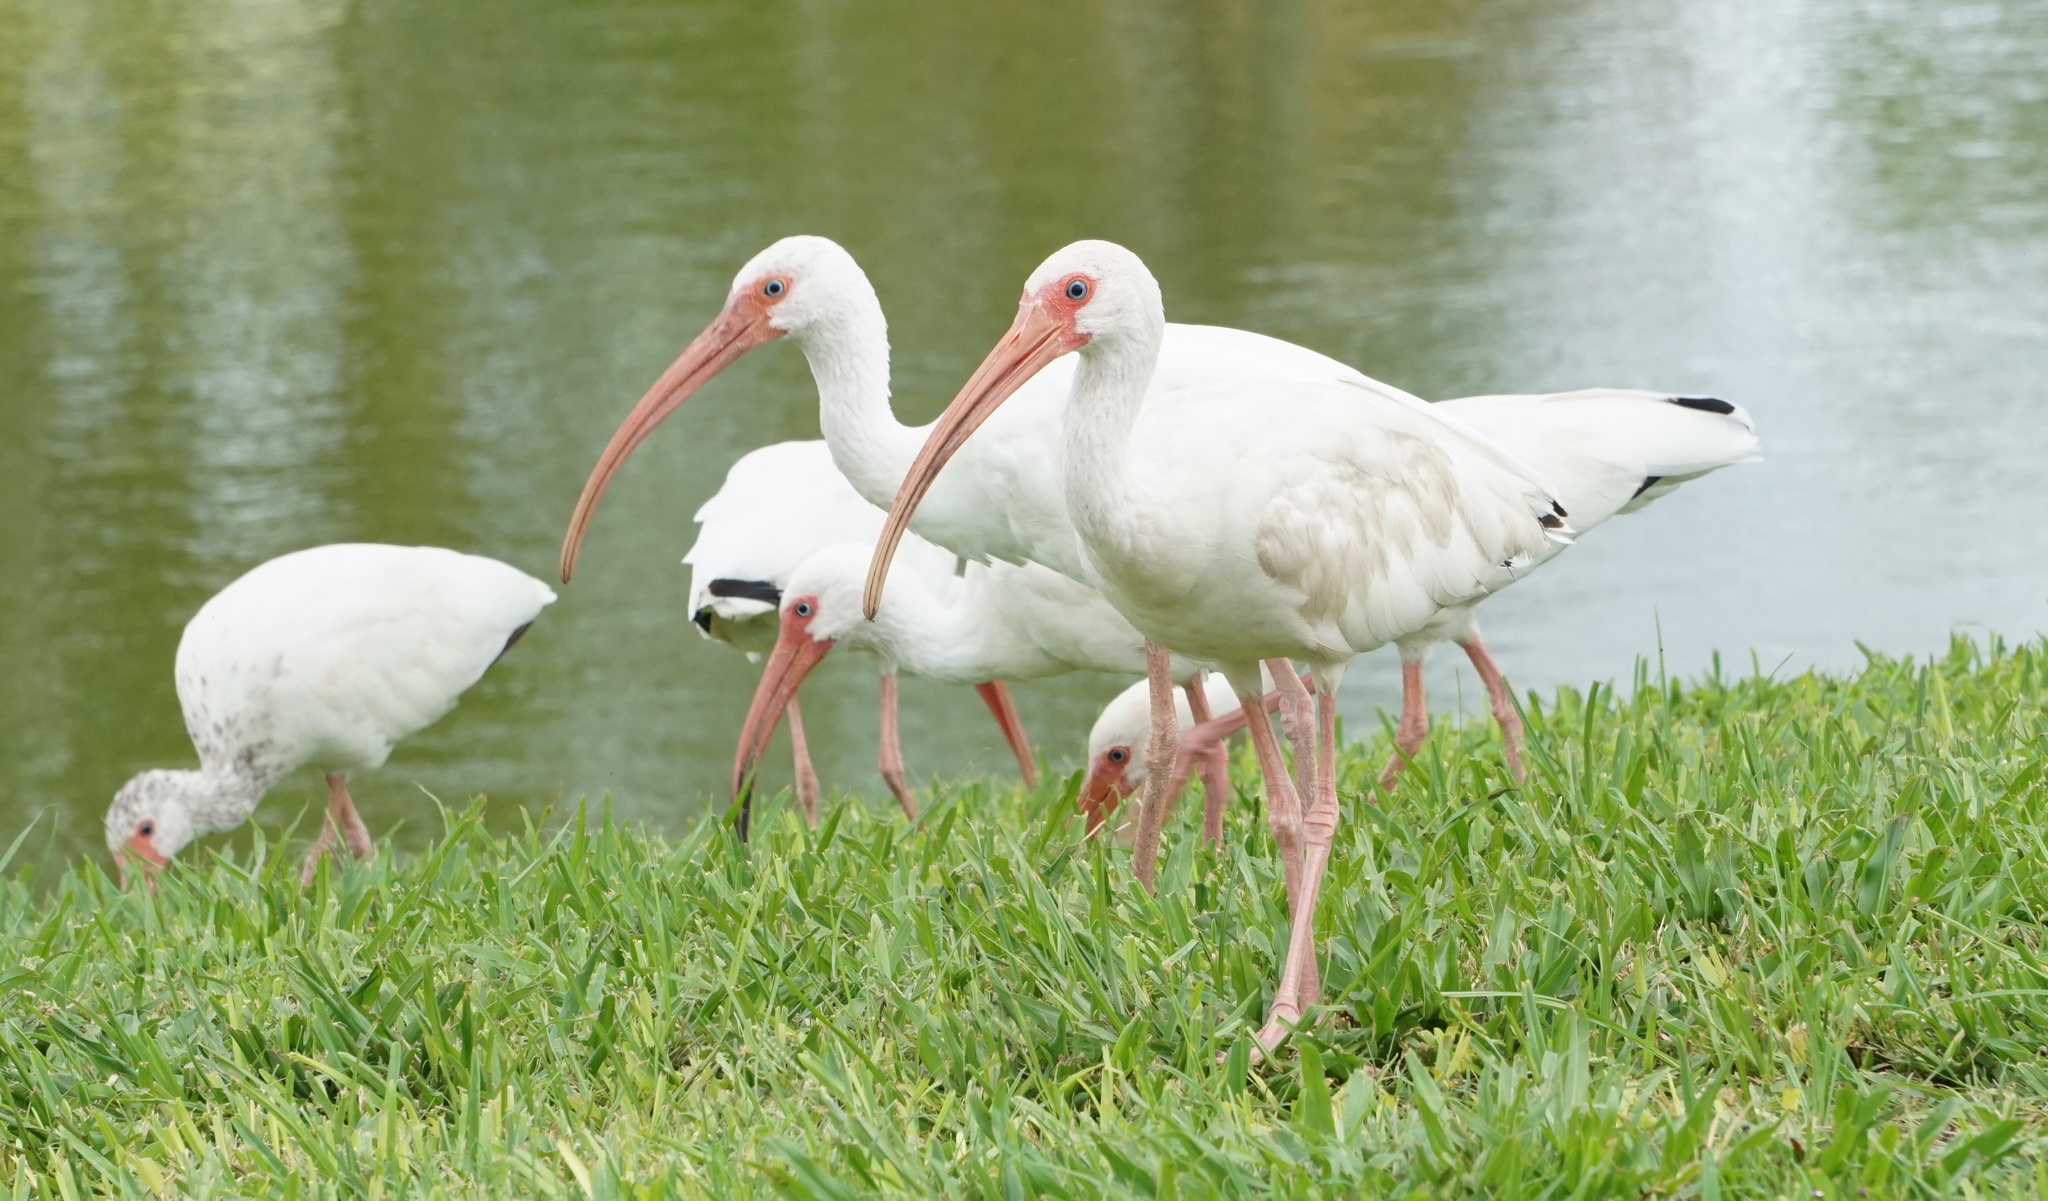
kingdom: Animalia
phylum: Chordata
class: Aves
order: Pelecaniformes
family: Threskiornithidae
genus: Eudocimus
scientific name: Eudocimus albus
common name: White ibis
